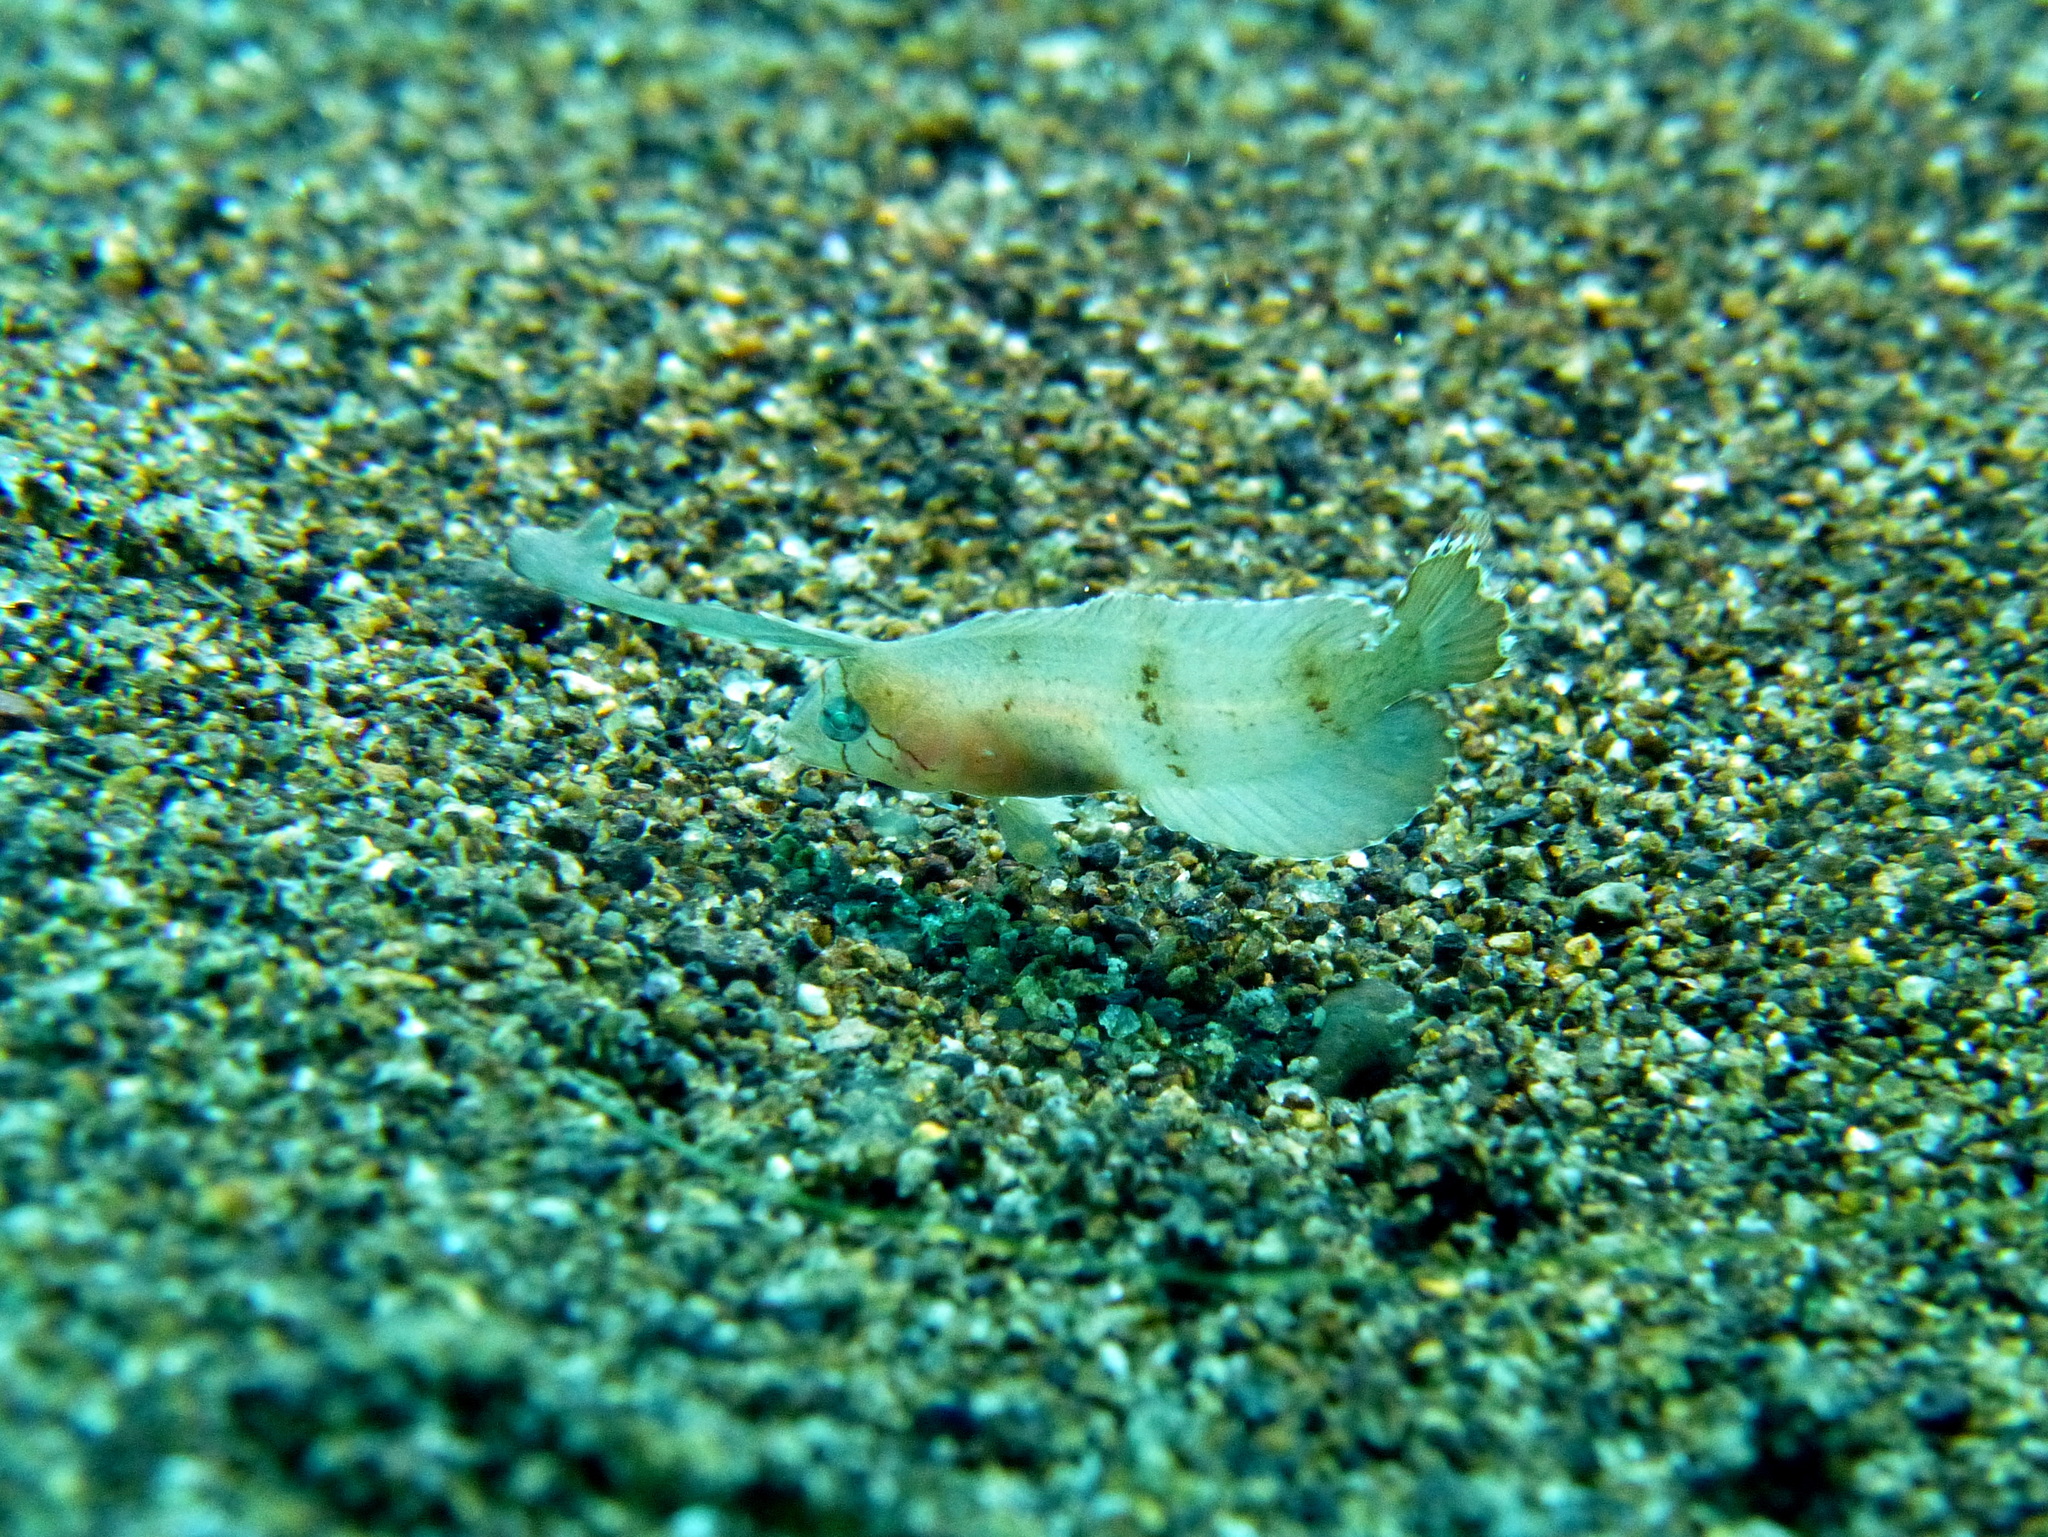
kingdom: Animalia
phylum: Chordata
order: Perciformes
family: Labridae
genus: Iniistius
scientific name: Iniistius pavo
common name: Peacock wrasse
